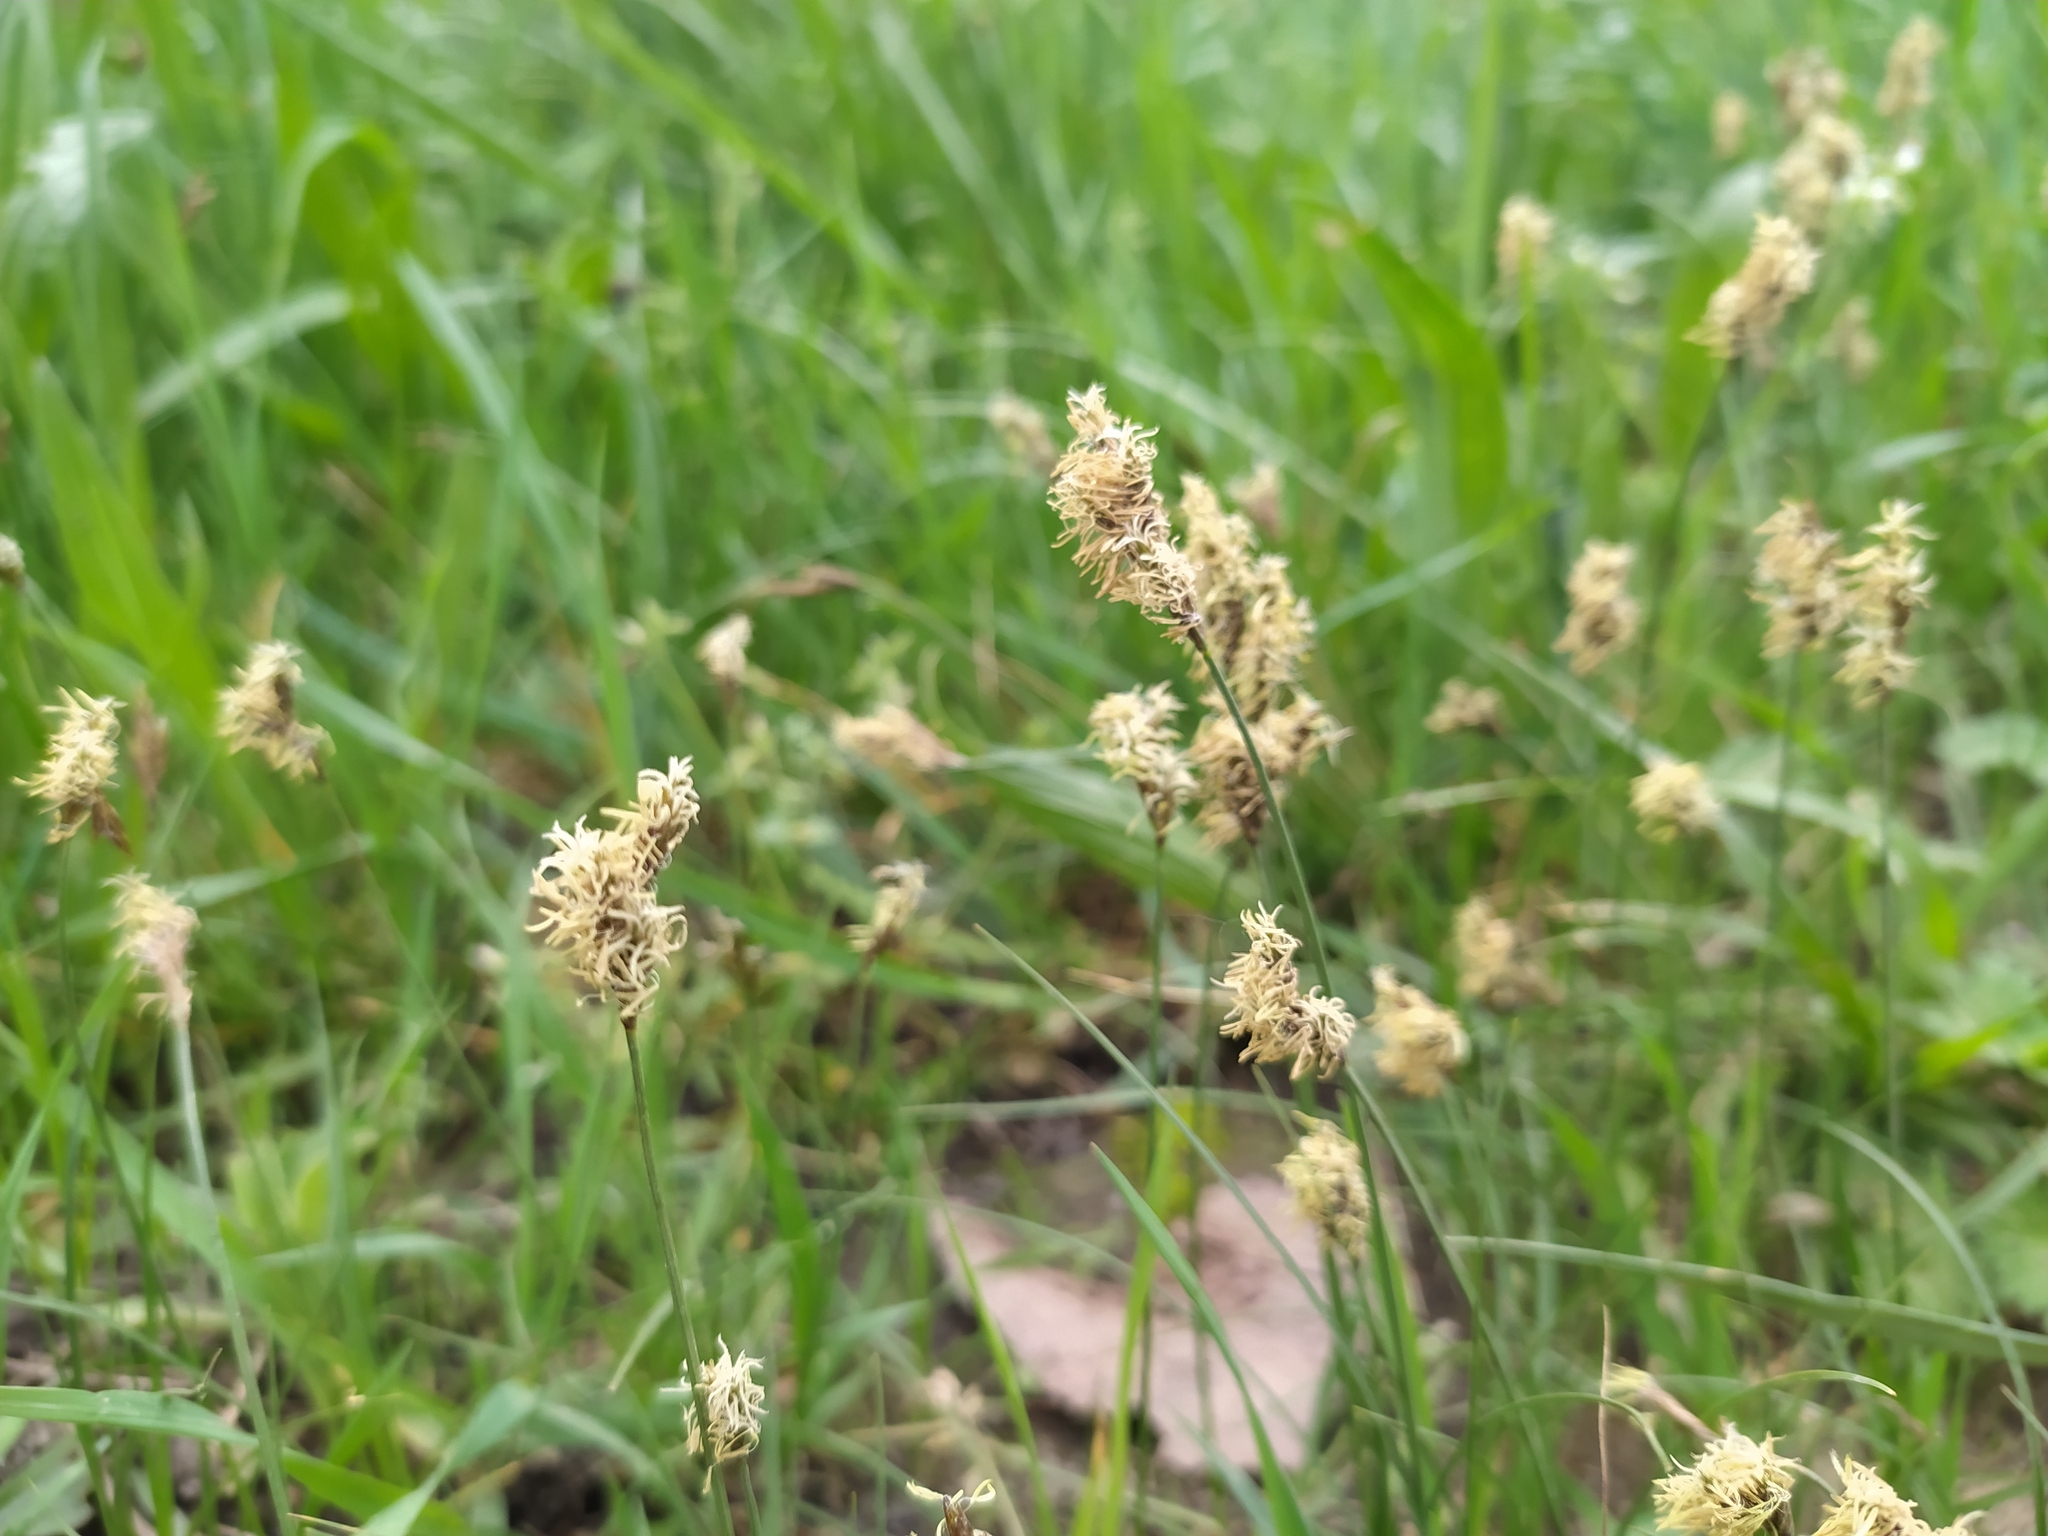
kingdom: Plantae
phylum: Tracheophyta
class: Liliopsida
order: Poales
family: Cyperaceae
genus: Carex
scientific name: Carex praecox
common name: Early sedge
